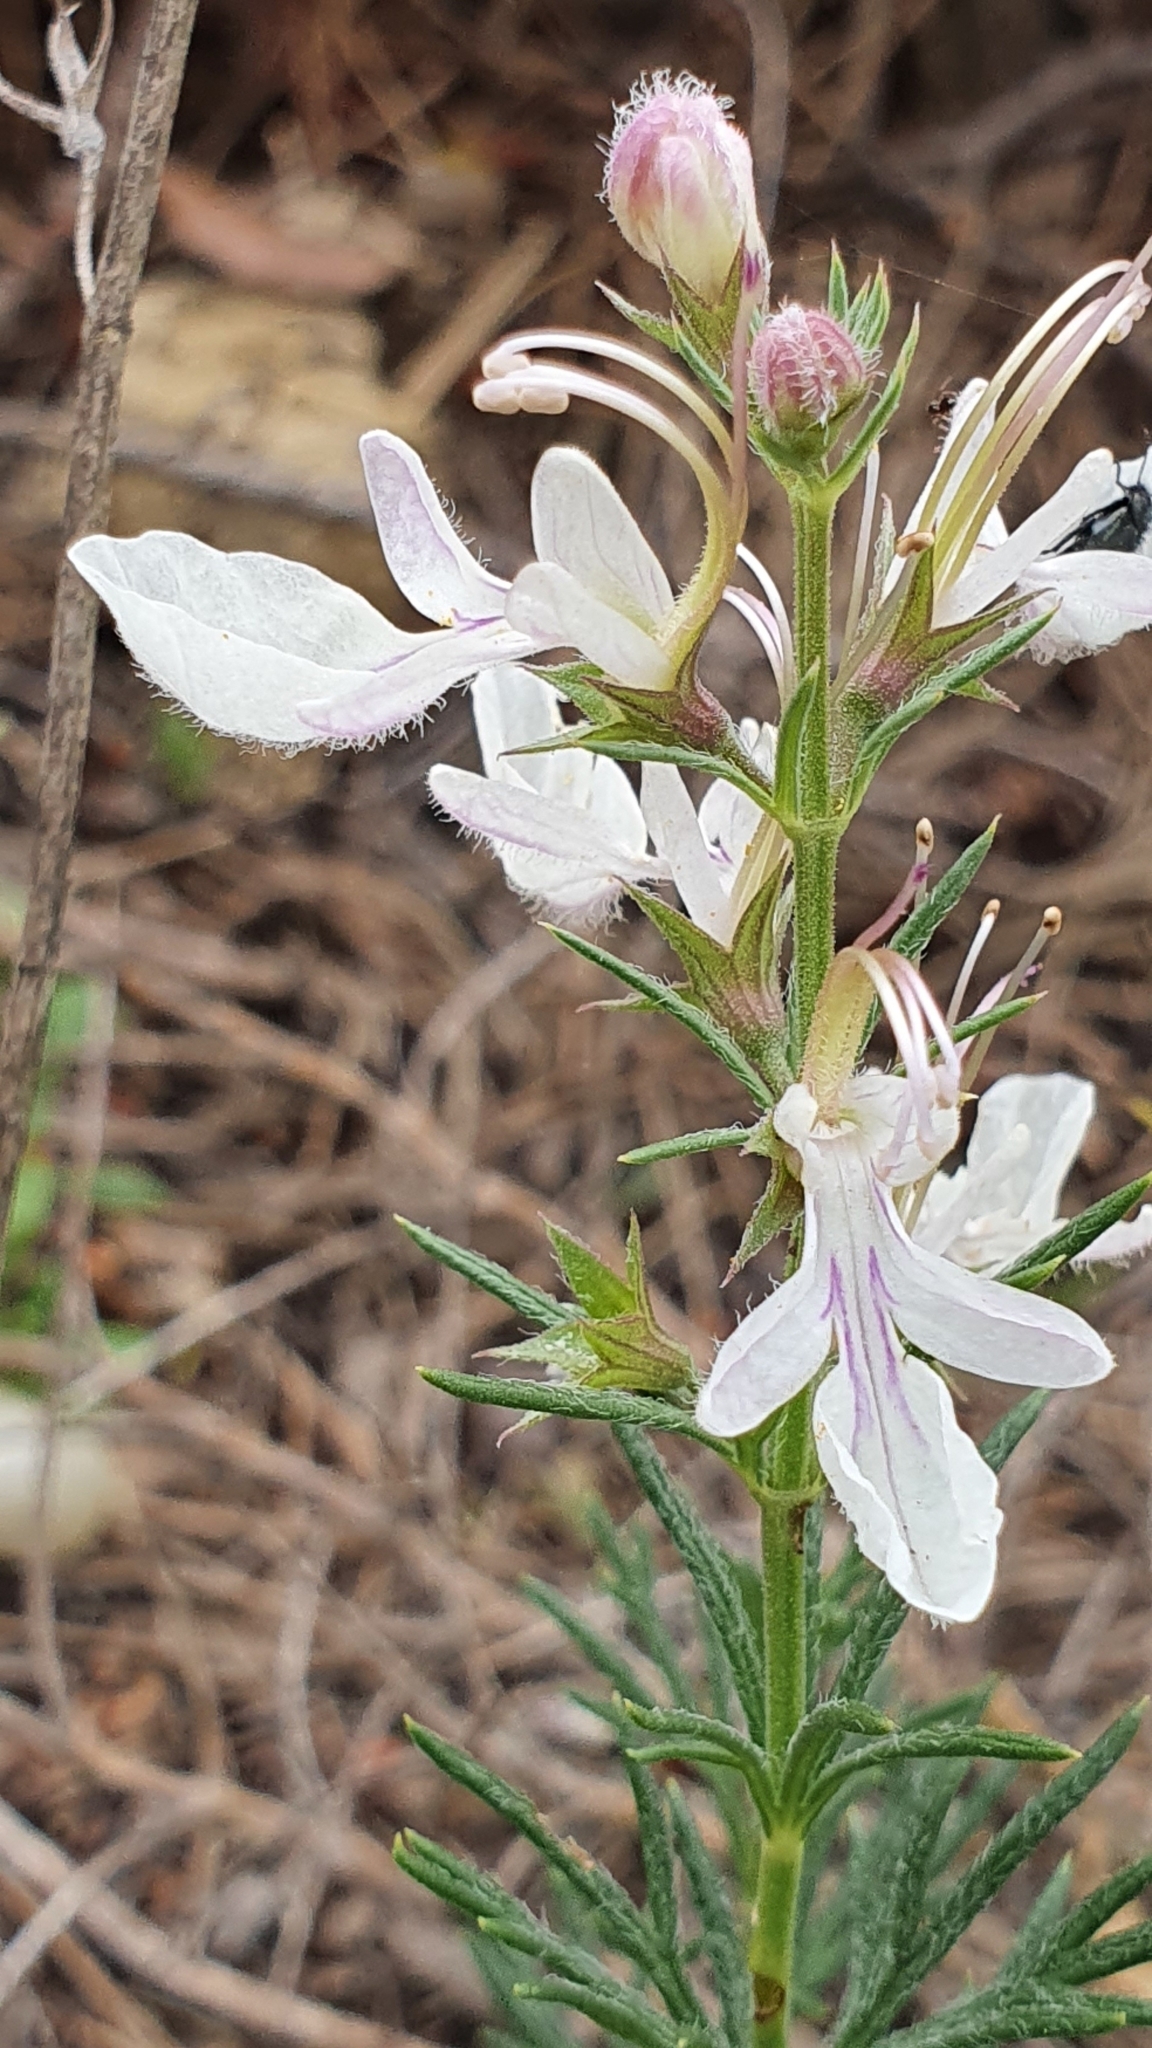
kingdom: Plantae
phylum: Tracheophyta
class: Magnoliopsida
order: Lamiales
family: Lamiaceae
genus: Teucrium
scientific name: Teucrium pseudochamaepitys
